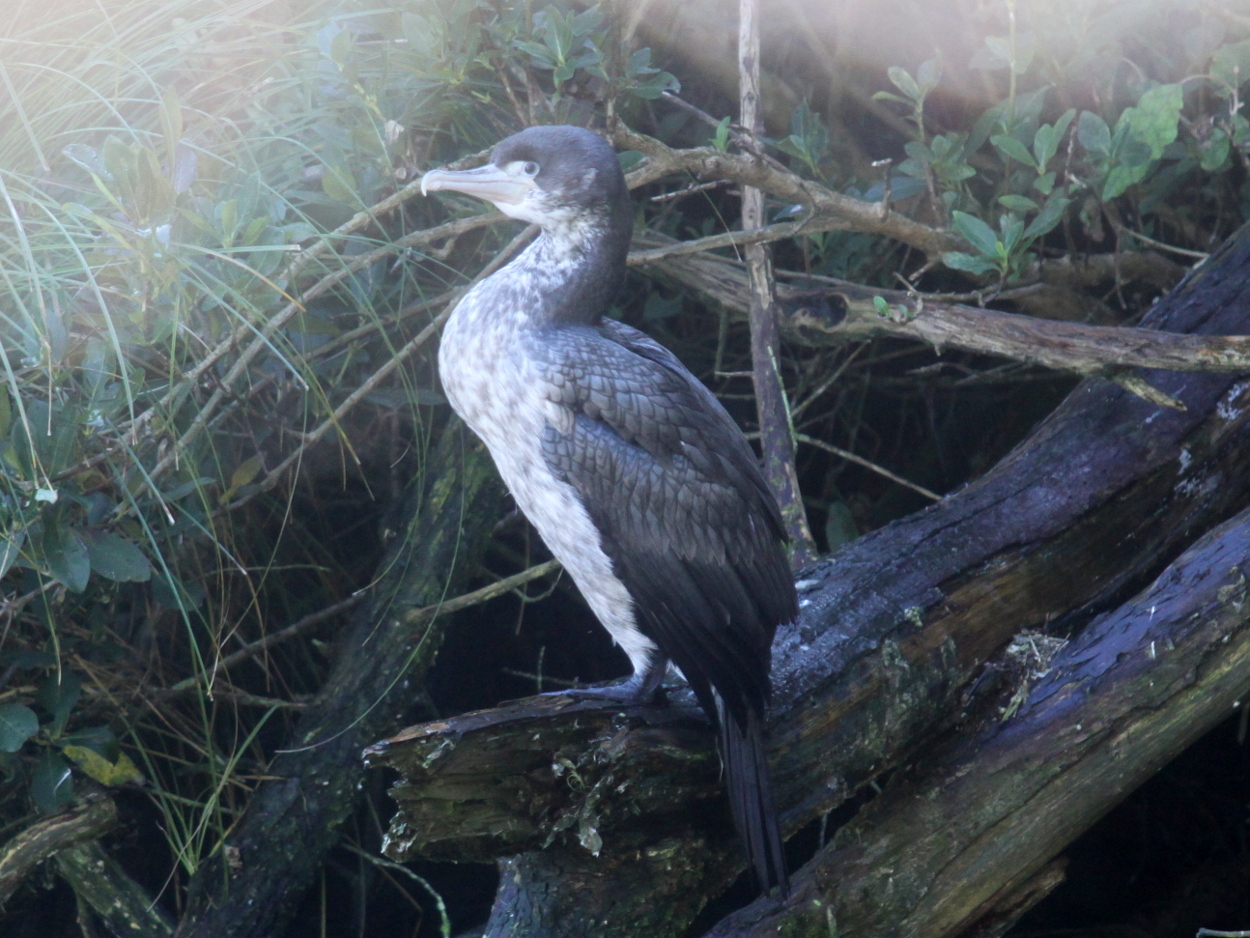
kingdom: Animalia
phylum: Chordata
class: Aves
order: Suliformes
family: Phalacrocoracidae
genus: Phalacrocorax
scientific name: Phalacrocorax varius
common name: Pied cormorant
